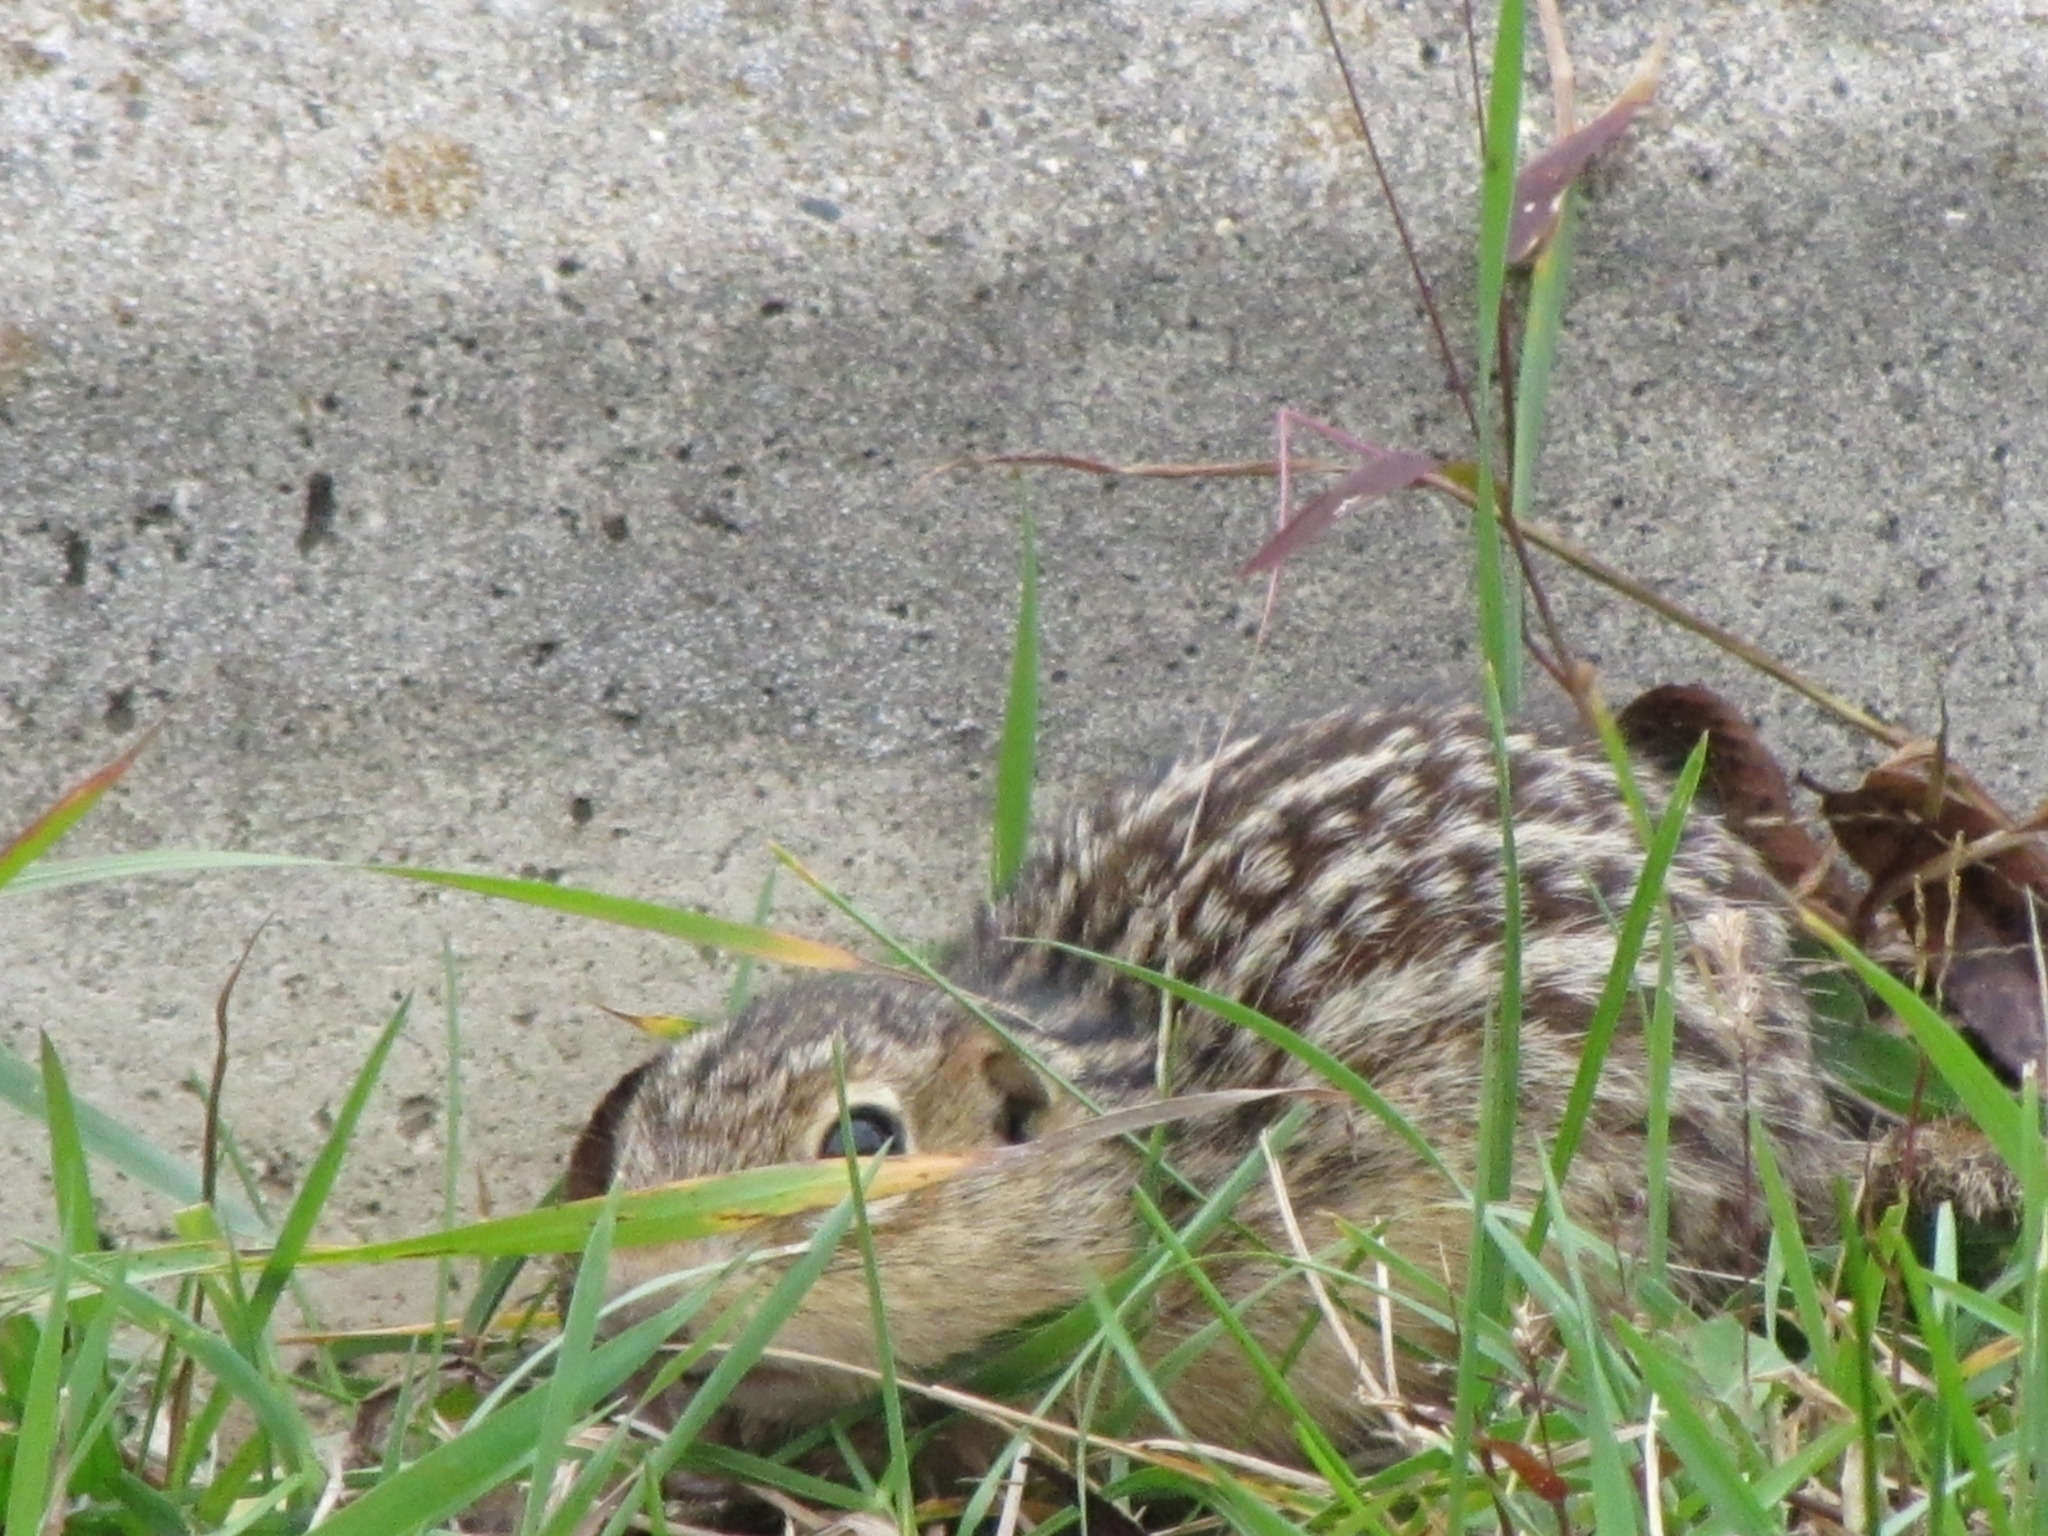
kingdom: Animalia
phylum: Chordata
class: Mammalia
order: Rodentia
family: Sciuridae
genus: Ictidomys
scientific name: Ictidomys tridecemlineatus
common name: Thirteen-lined ground squirrel
